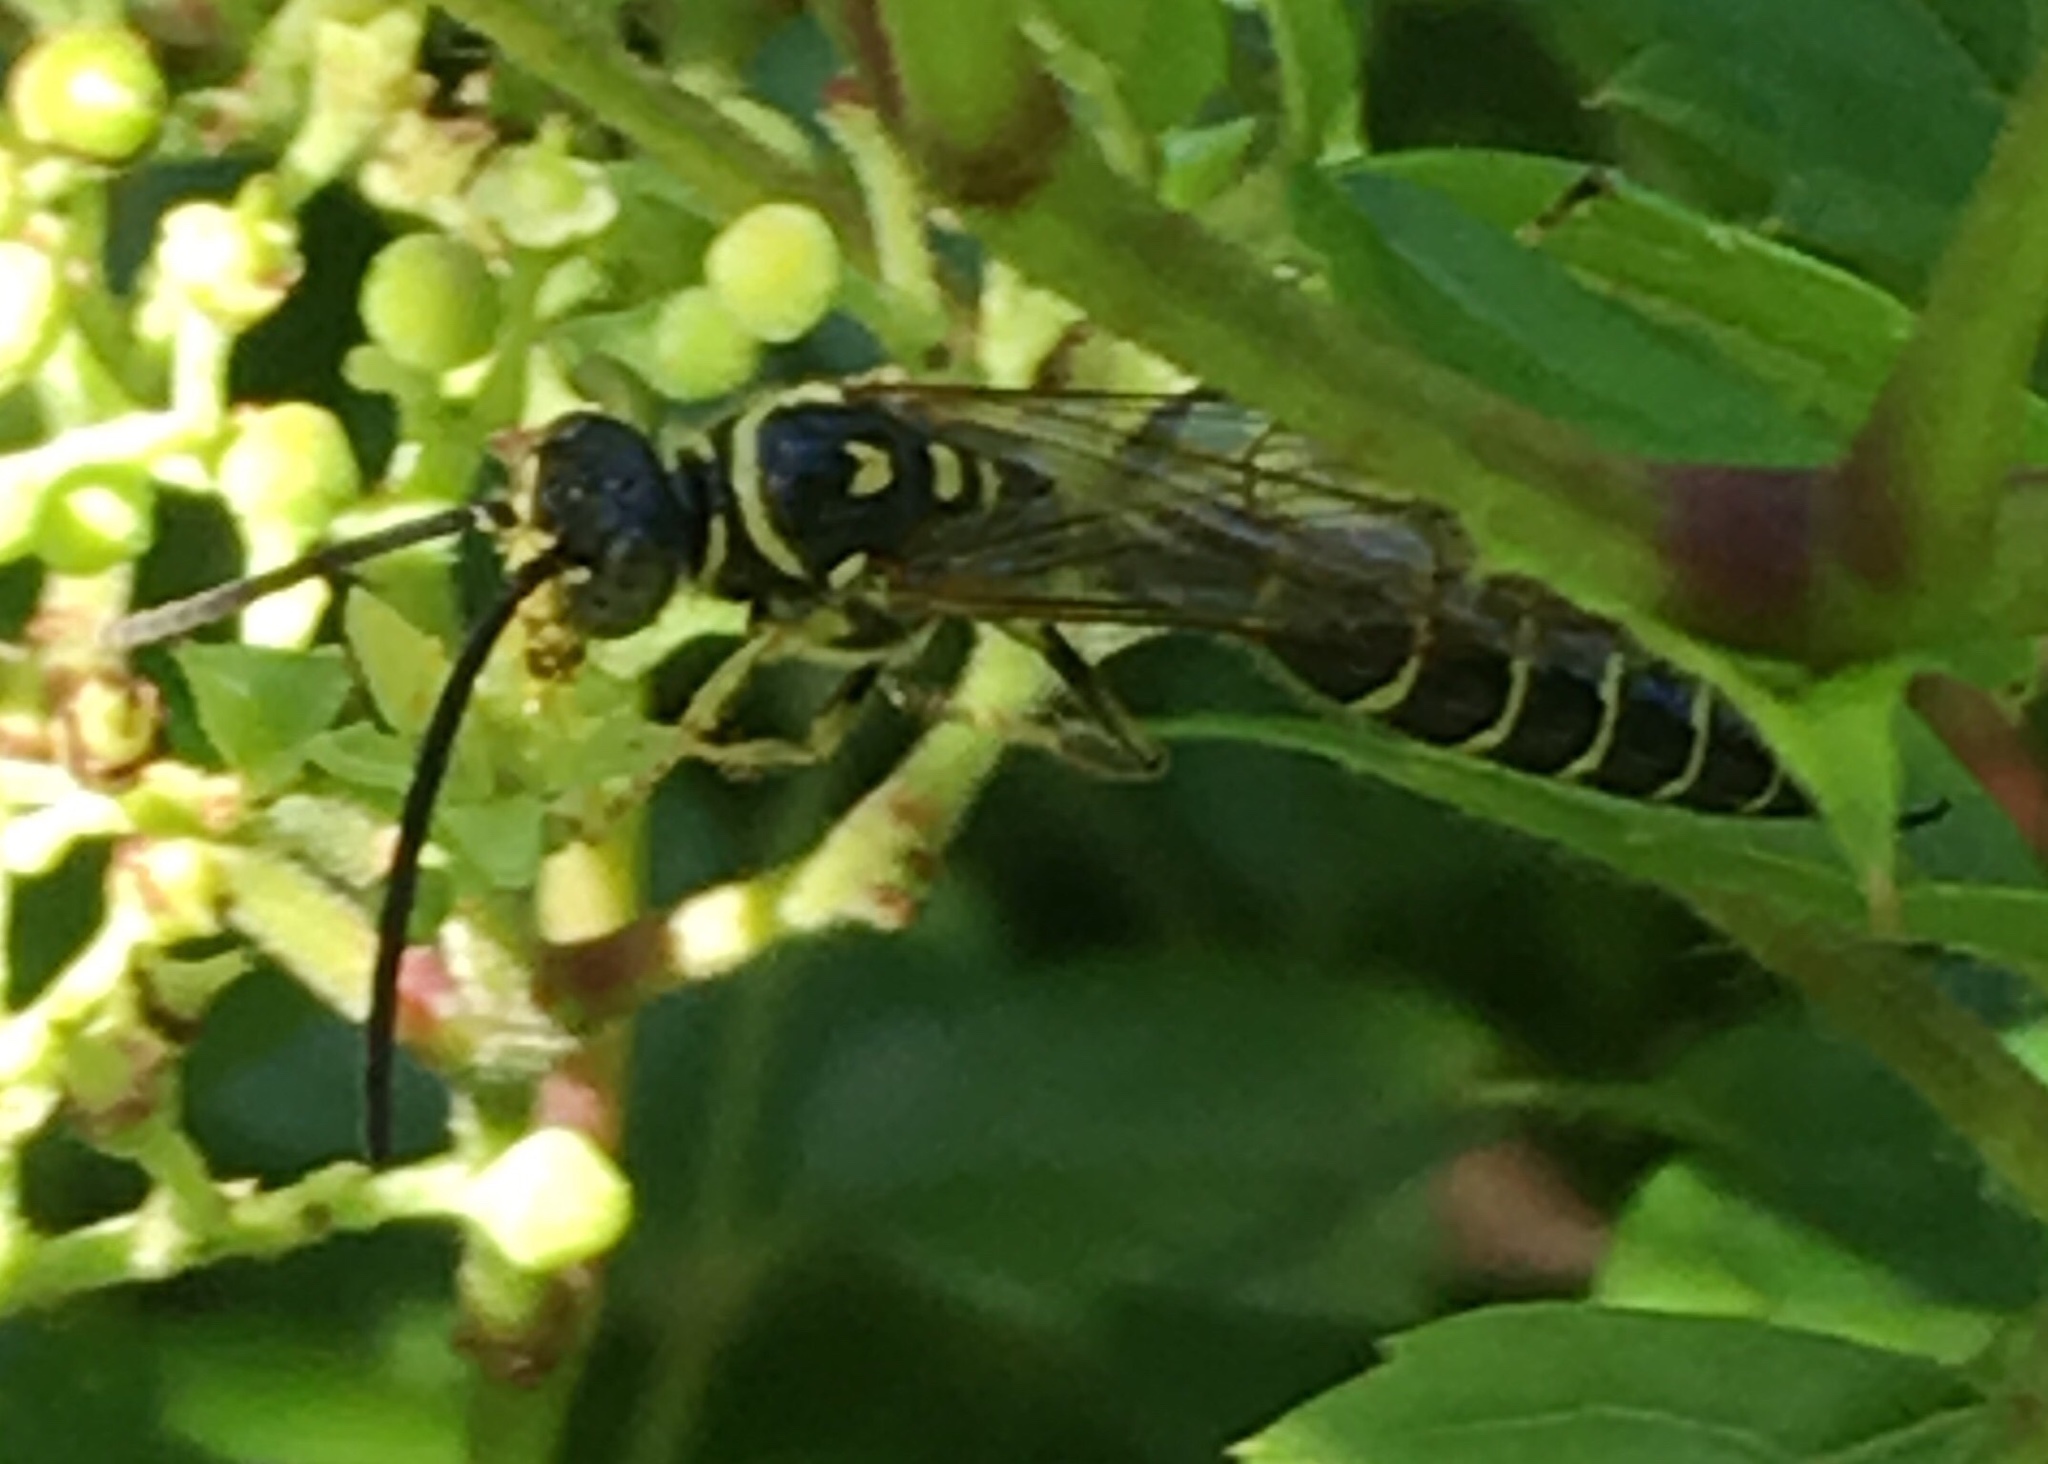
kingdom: Animalia
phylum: Arthropoda
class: Insecta
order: Hymenoptera
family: Tiphiidae
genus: Myzinum
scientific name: Myzinum
